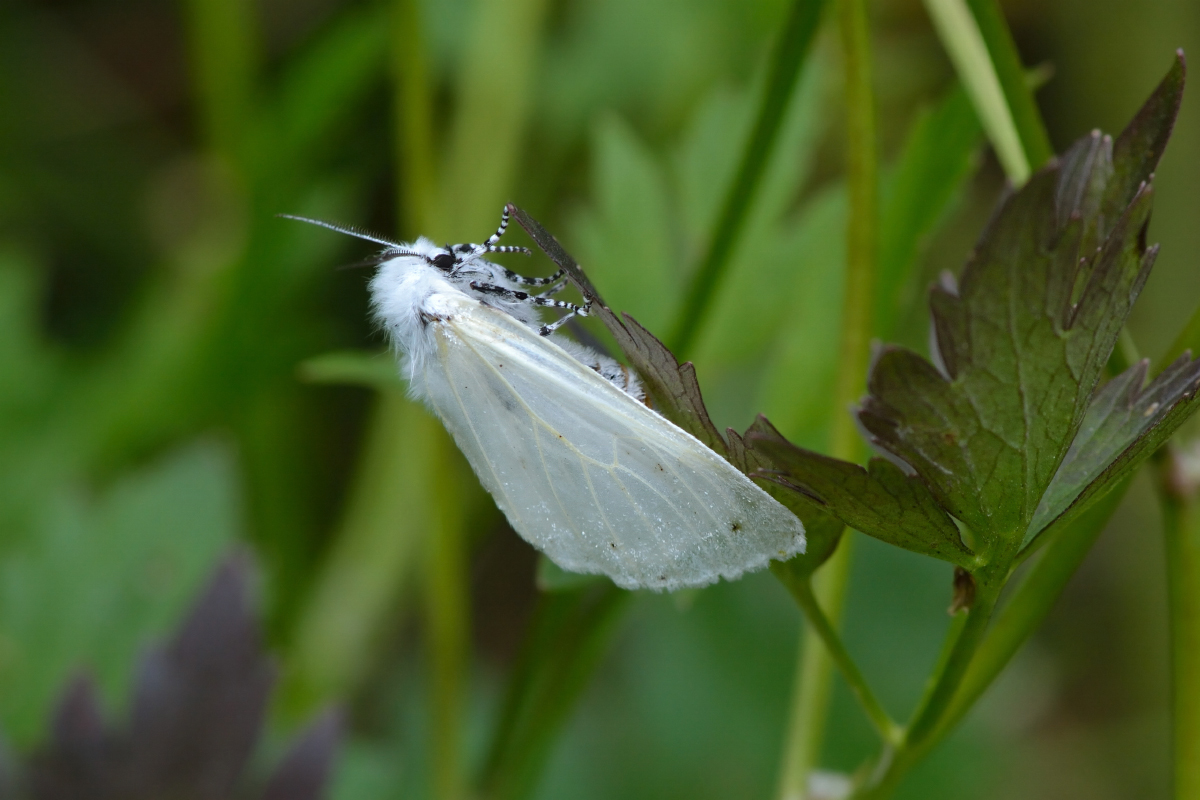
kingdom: Animalia
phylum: Arthropoda
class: Insecta
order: Lepidoptera
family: Erebidae
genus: Leucoma
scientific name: Leucoma salicis
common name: White satin moth
